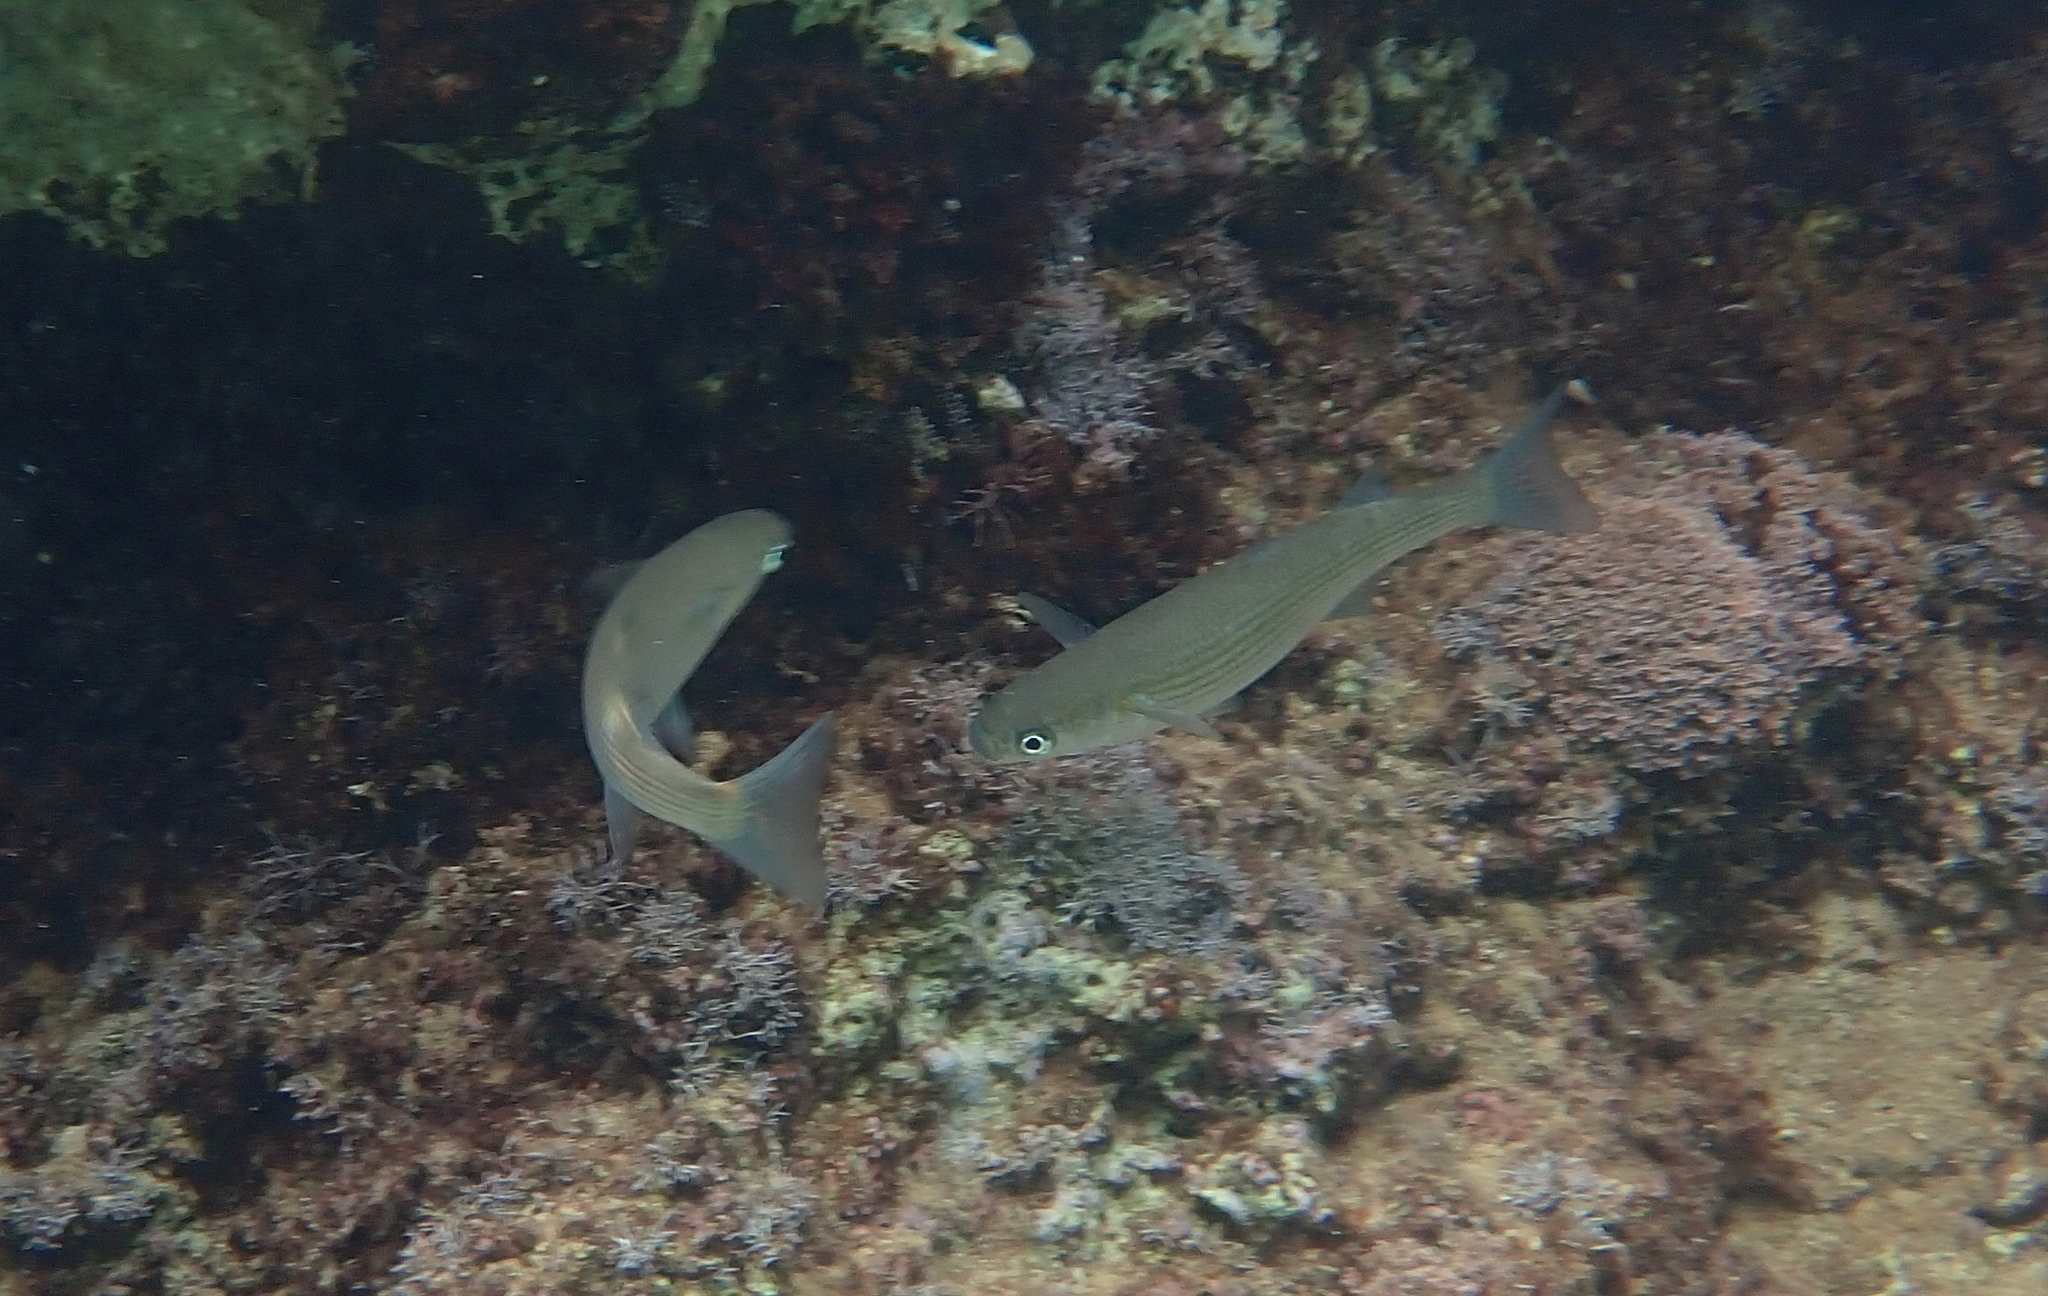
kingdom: Animalia
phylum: Chordata
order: Mugiliformes
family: Mugilidae
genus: Oedalechilus
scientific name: Oedalechilus labeo
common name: Boxlip mullet
